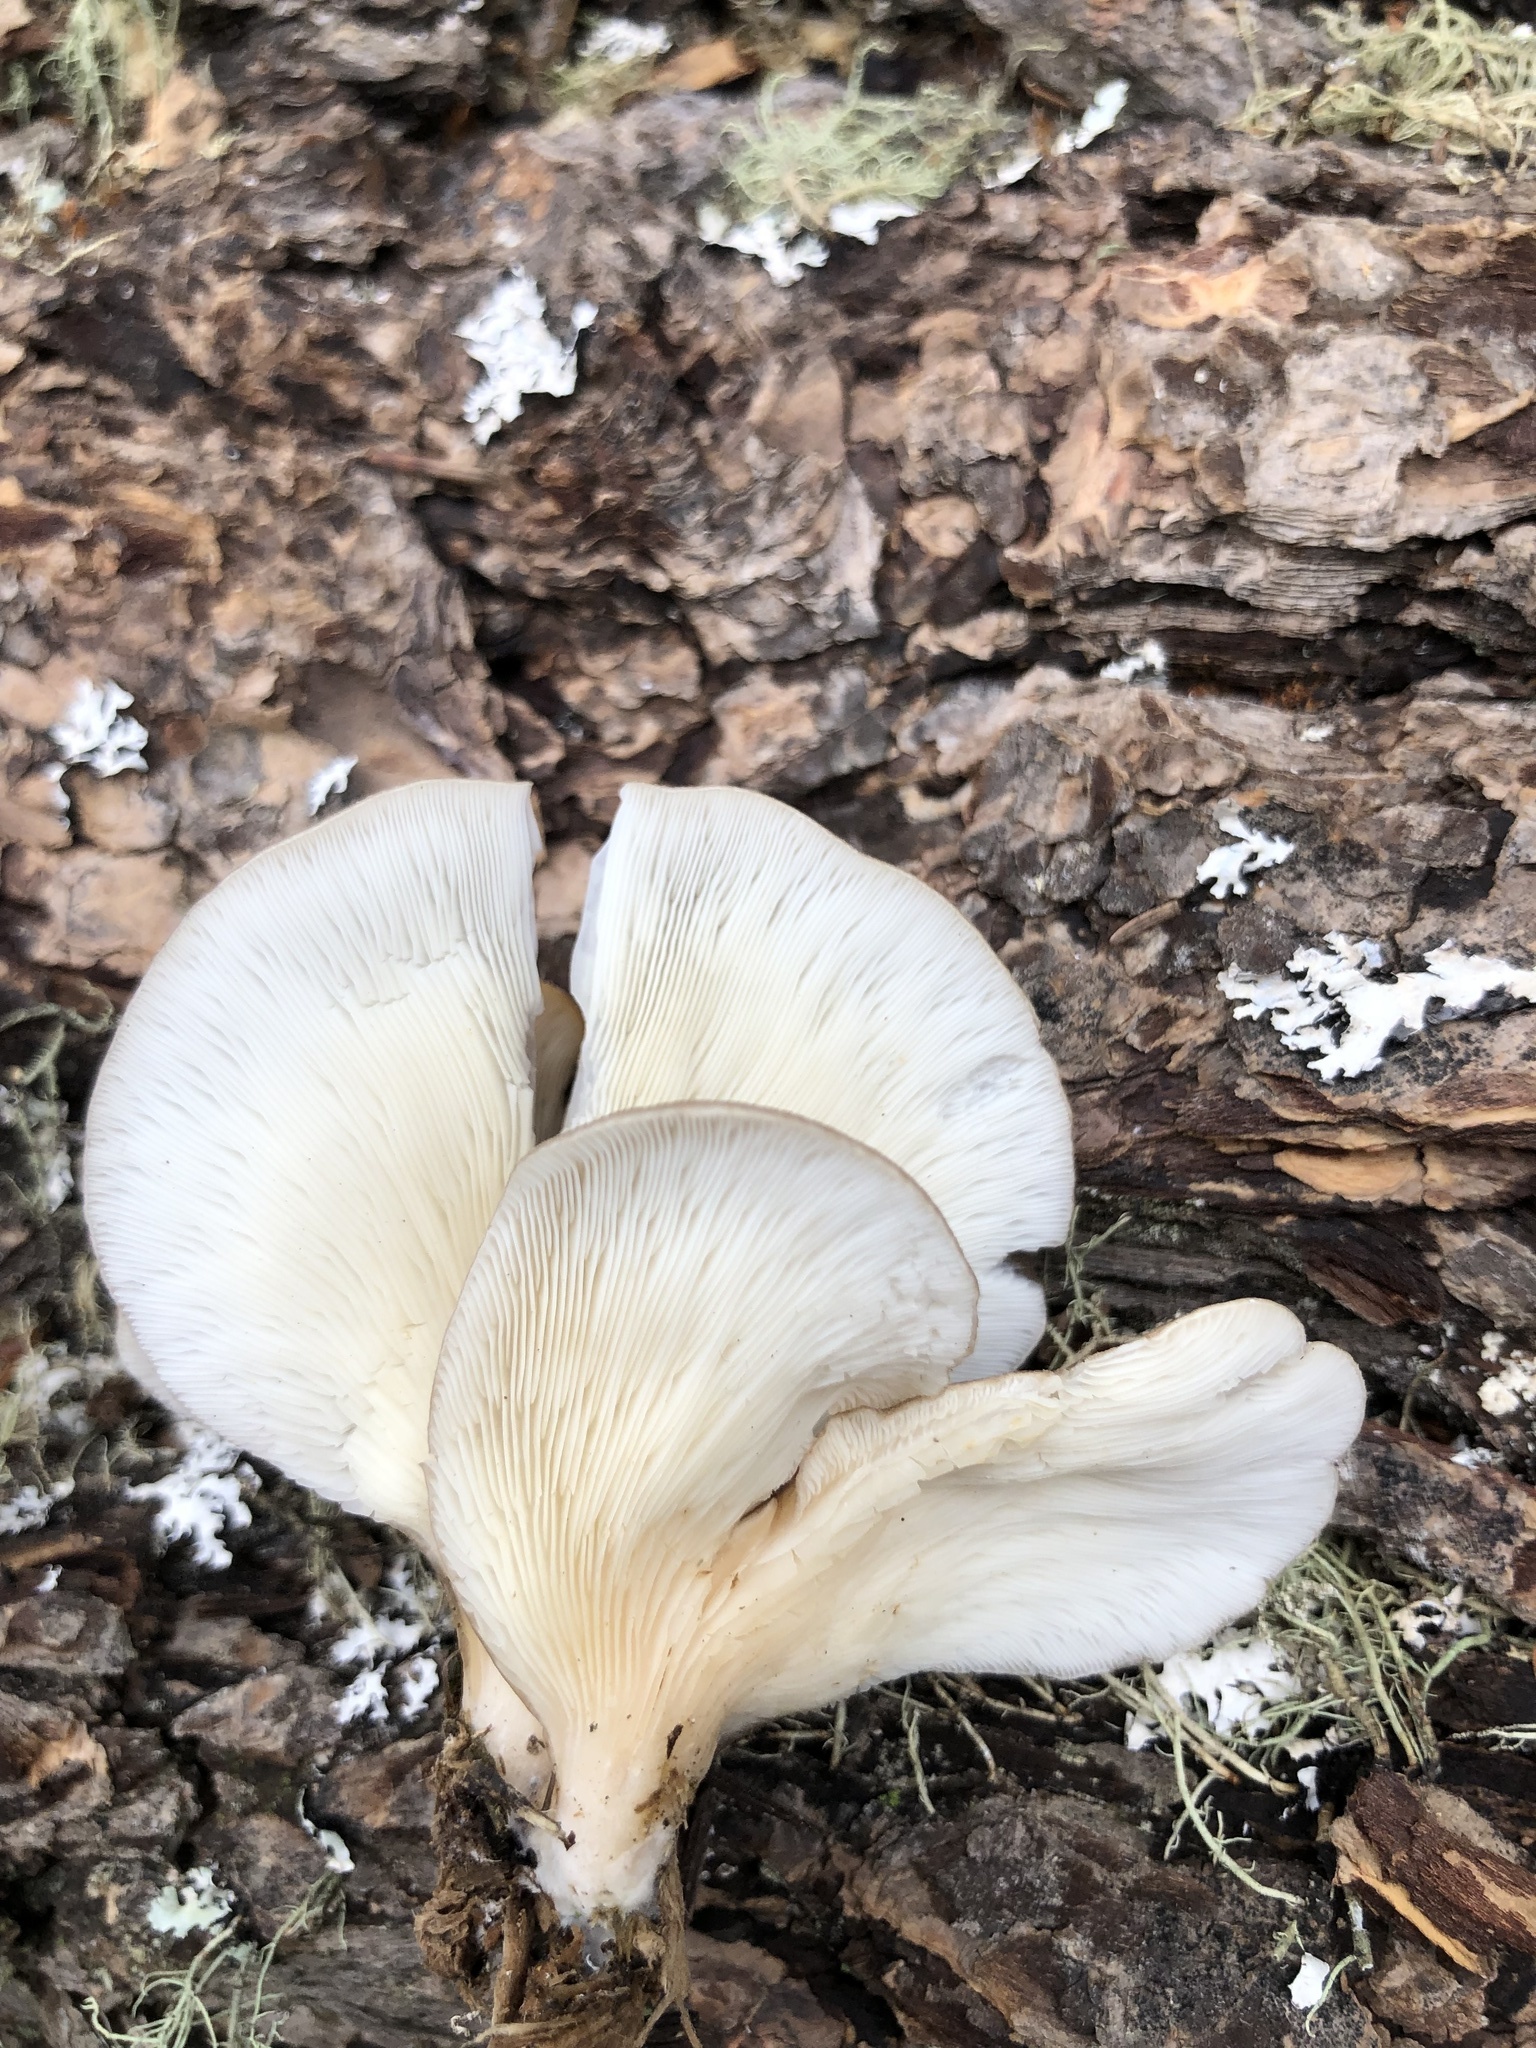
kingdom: Fungi
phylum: Basidiomycota
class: Agaricomycetes
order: Agaricales
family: Pleurotaceae
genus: Hohenbuehelia
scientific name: Hohenbuehelia petaloides
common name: Shoehorn oyster
